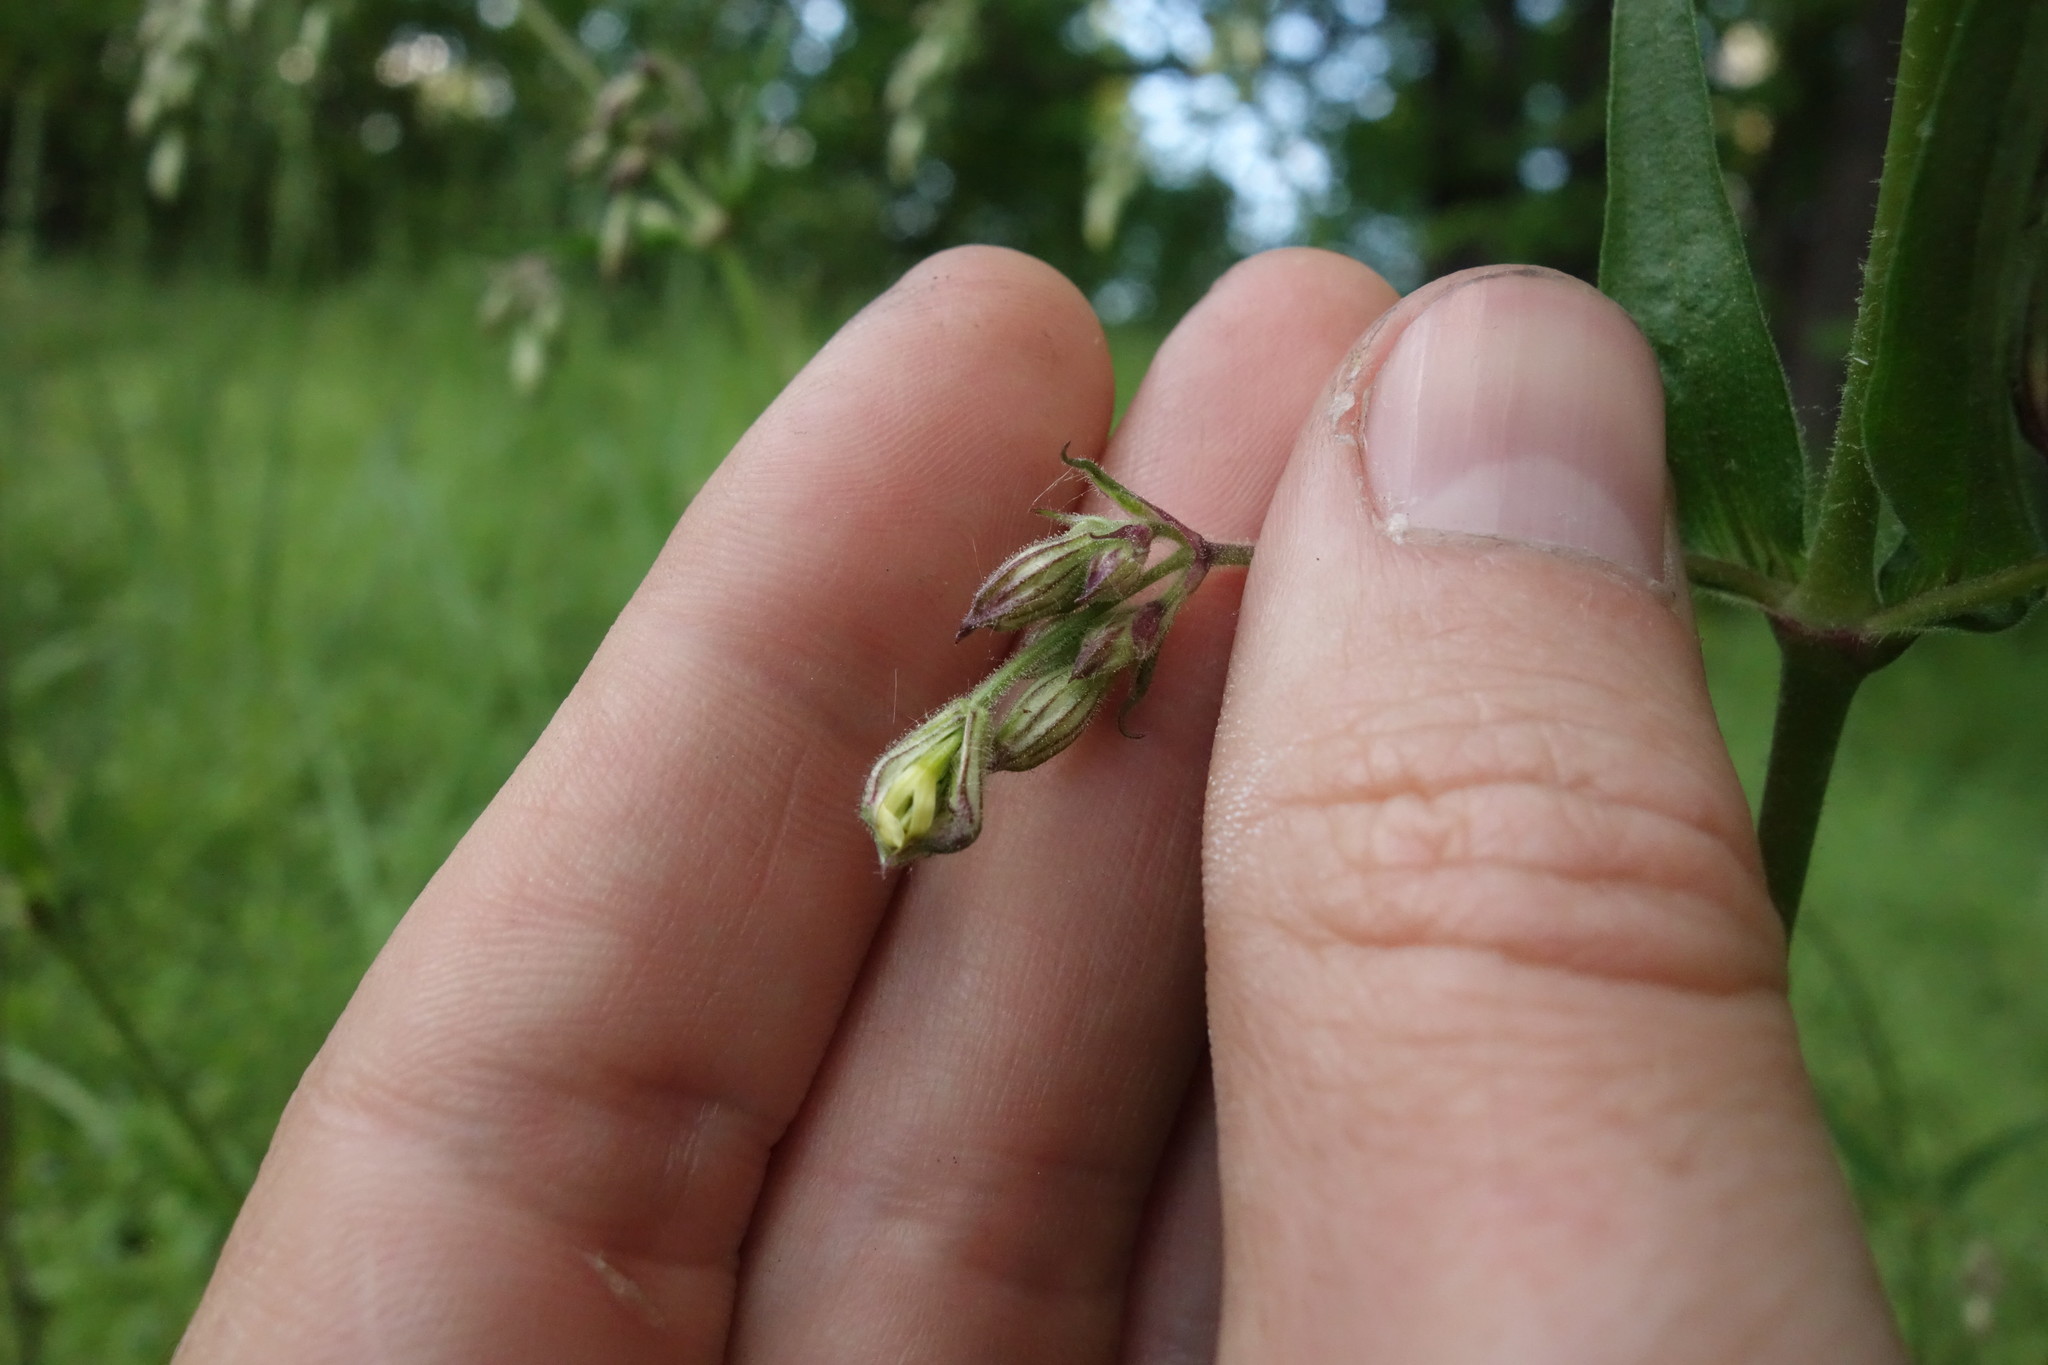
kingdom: Plantae
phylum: Tracheophyta
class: Magnoliopsida
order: Caryophyllales
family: Caryophyllaceae
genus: Silene
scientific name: Silene nutans
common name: Nottingham catchfly
